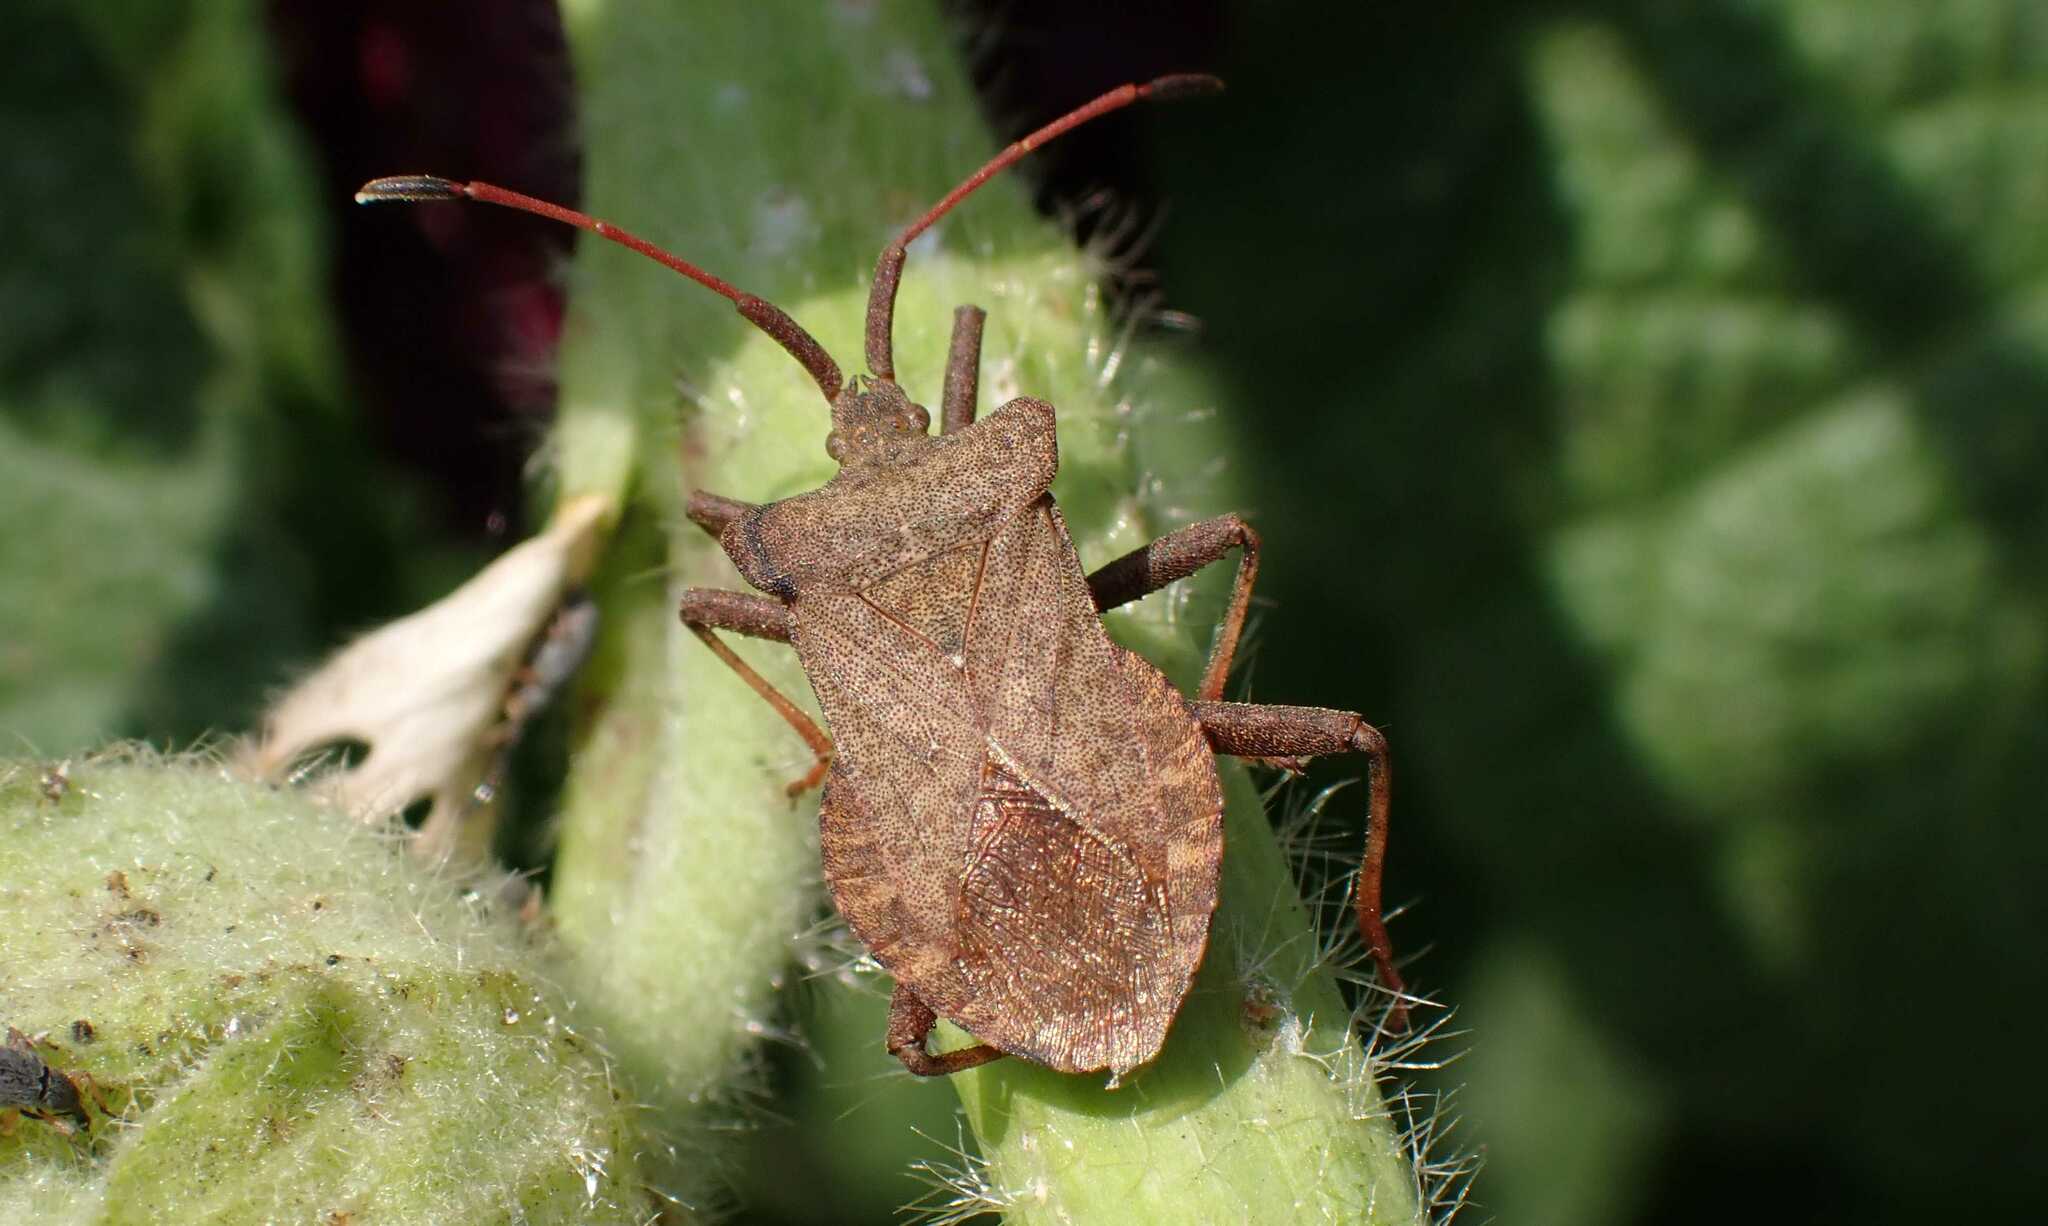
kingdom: Animalia
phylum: Arthropoda
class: Insecta
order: Hemiptera
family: Coreidae
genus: Coreus
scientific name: Coreus marginatus
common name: Dock bug
